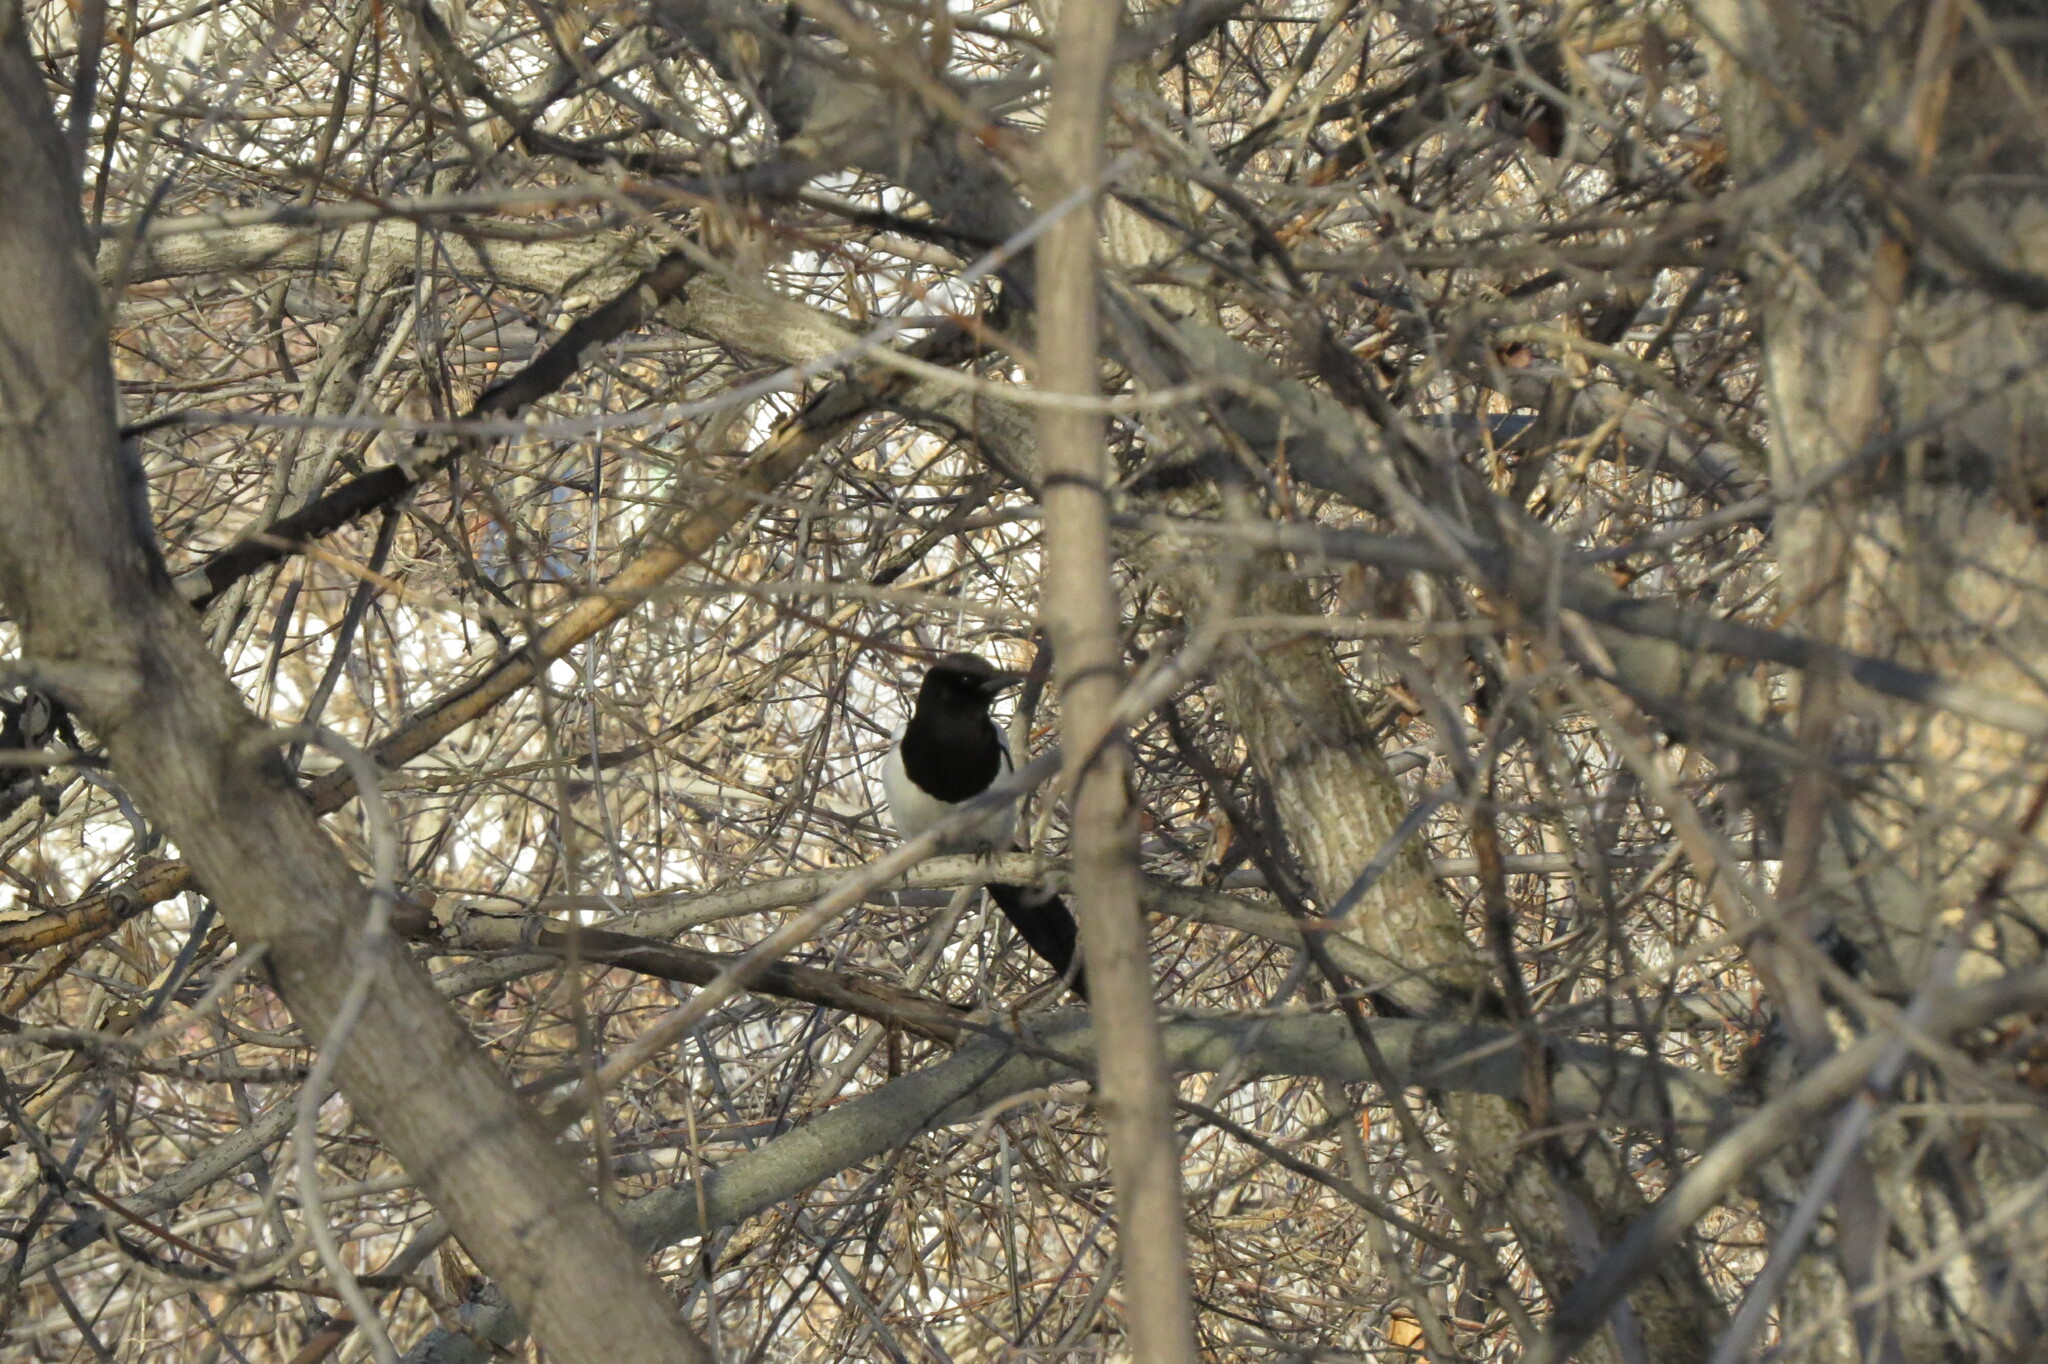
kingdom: Animalia
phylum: Chordata
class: Aves
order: Passeriformes
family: Corvidae
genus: Pica
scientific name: Pica pica
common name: Eurasian magpie
